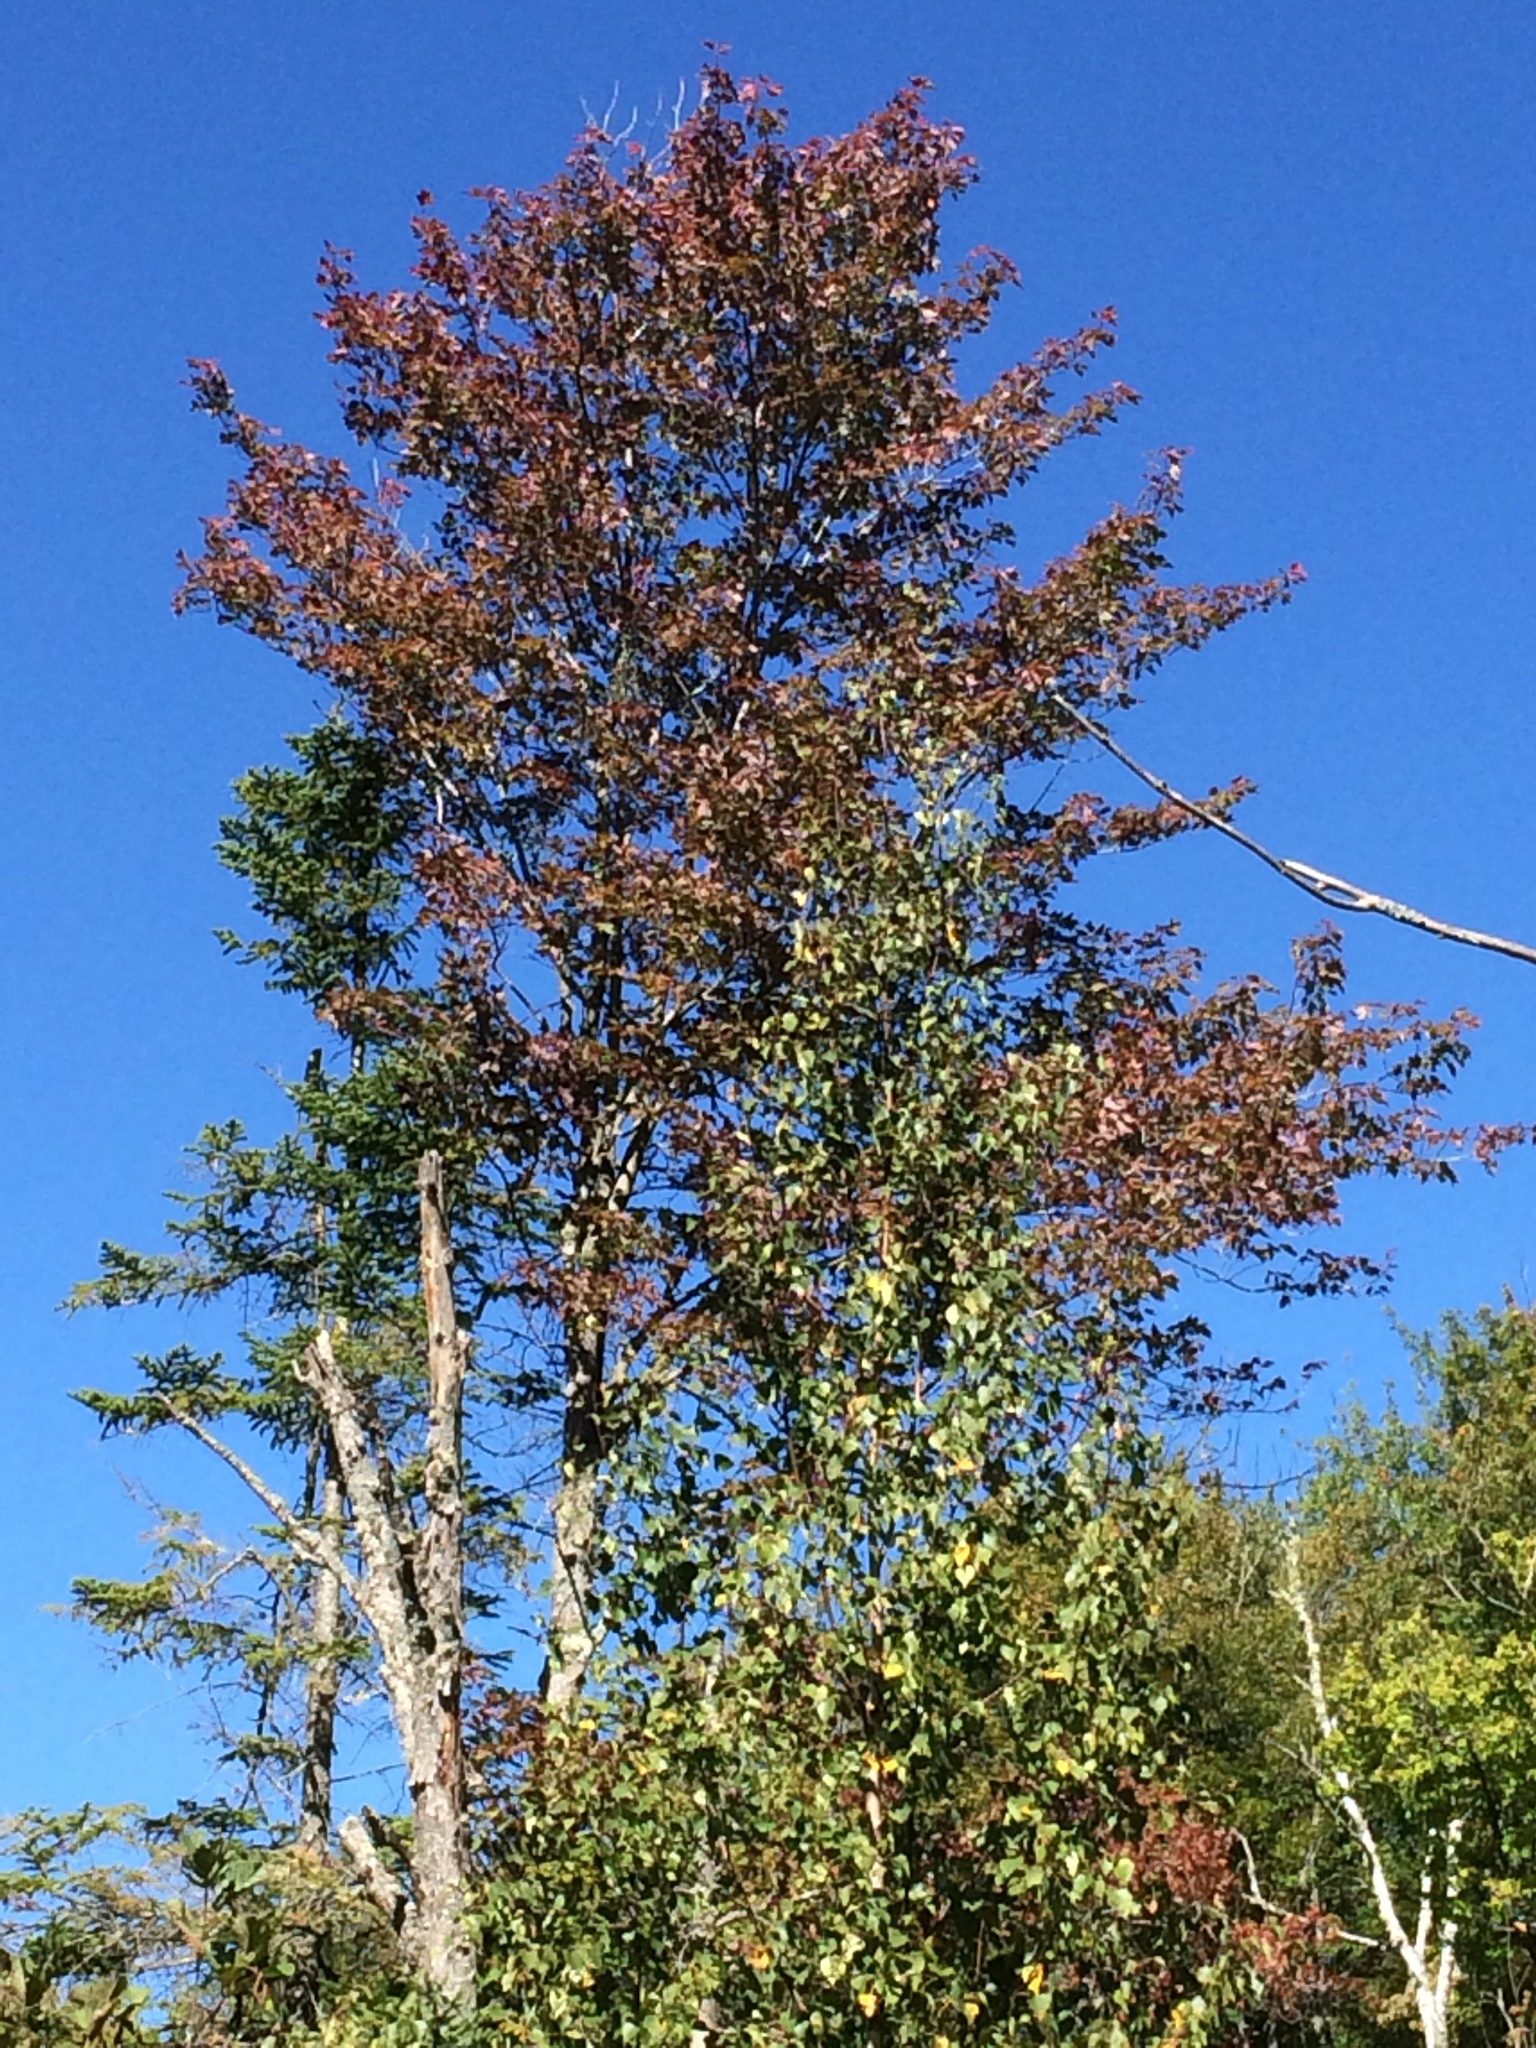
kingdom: Plantae
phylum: Tracheophyta
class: Magnoliopsida
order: Sapindales
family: Sapindaceae
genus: Acer
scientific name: Acer rubrum
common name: Red maple
